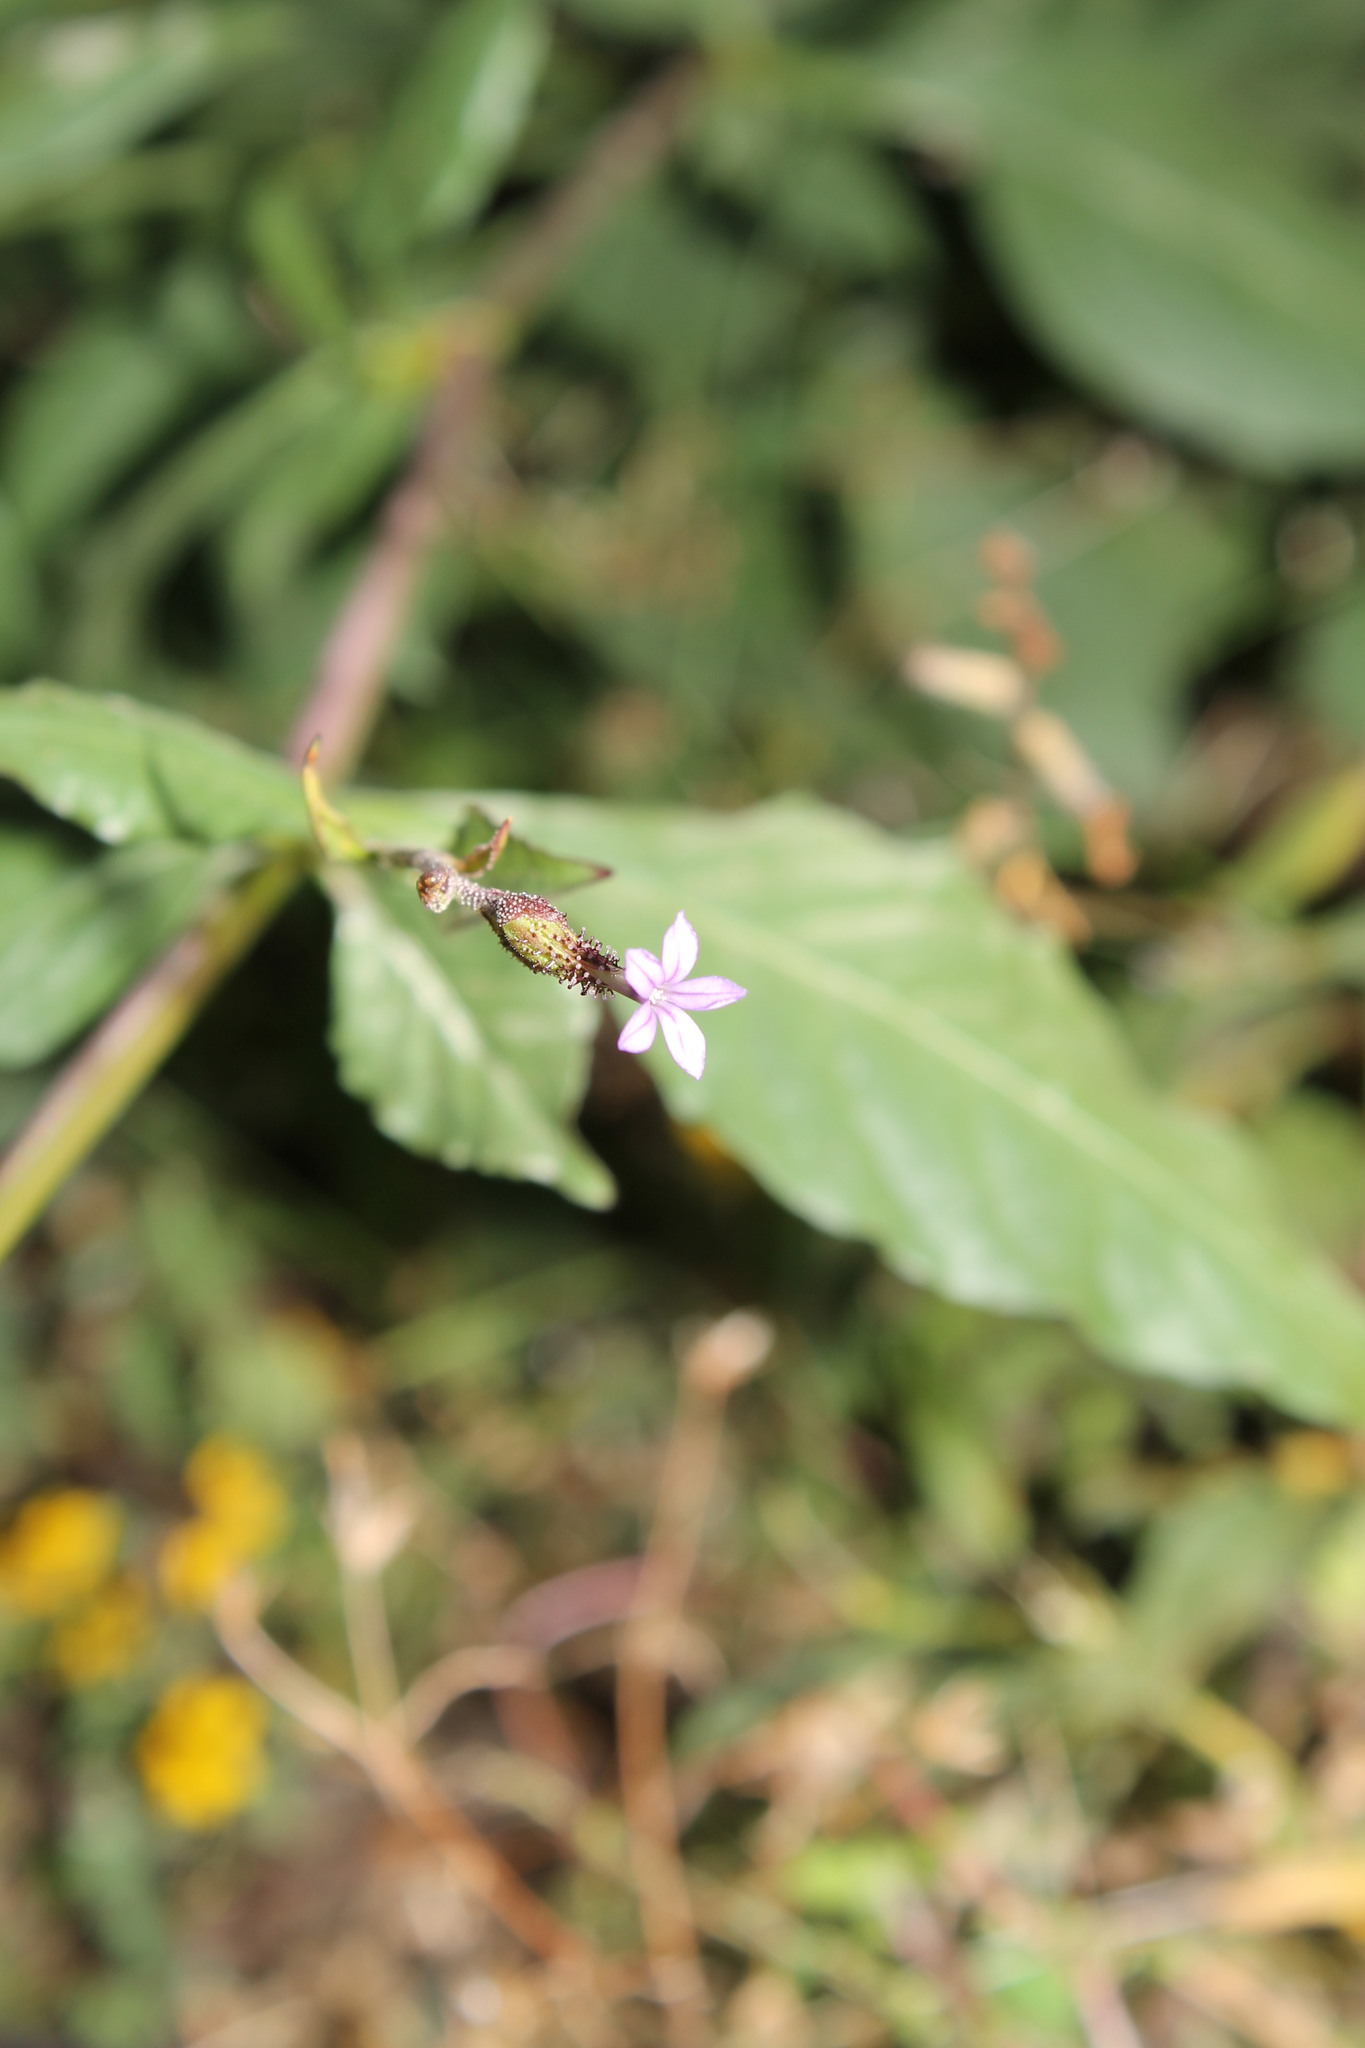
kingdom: Plantae
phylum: Tracheophyta
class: Magnoliopsida
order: Caryophyllales
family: Plumbaginaceae
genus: Plumbago
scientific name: Plumbago pulchella
